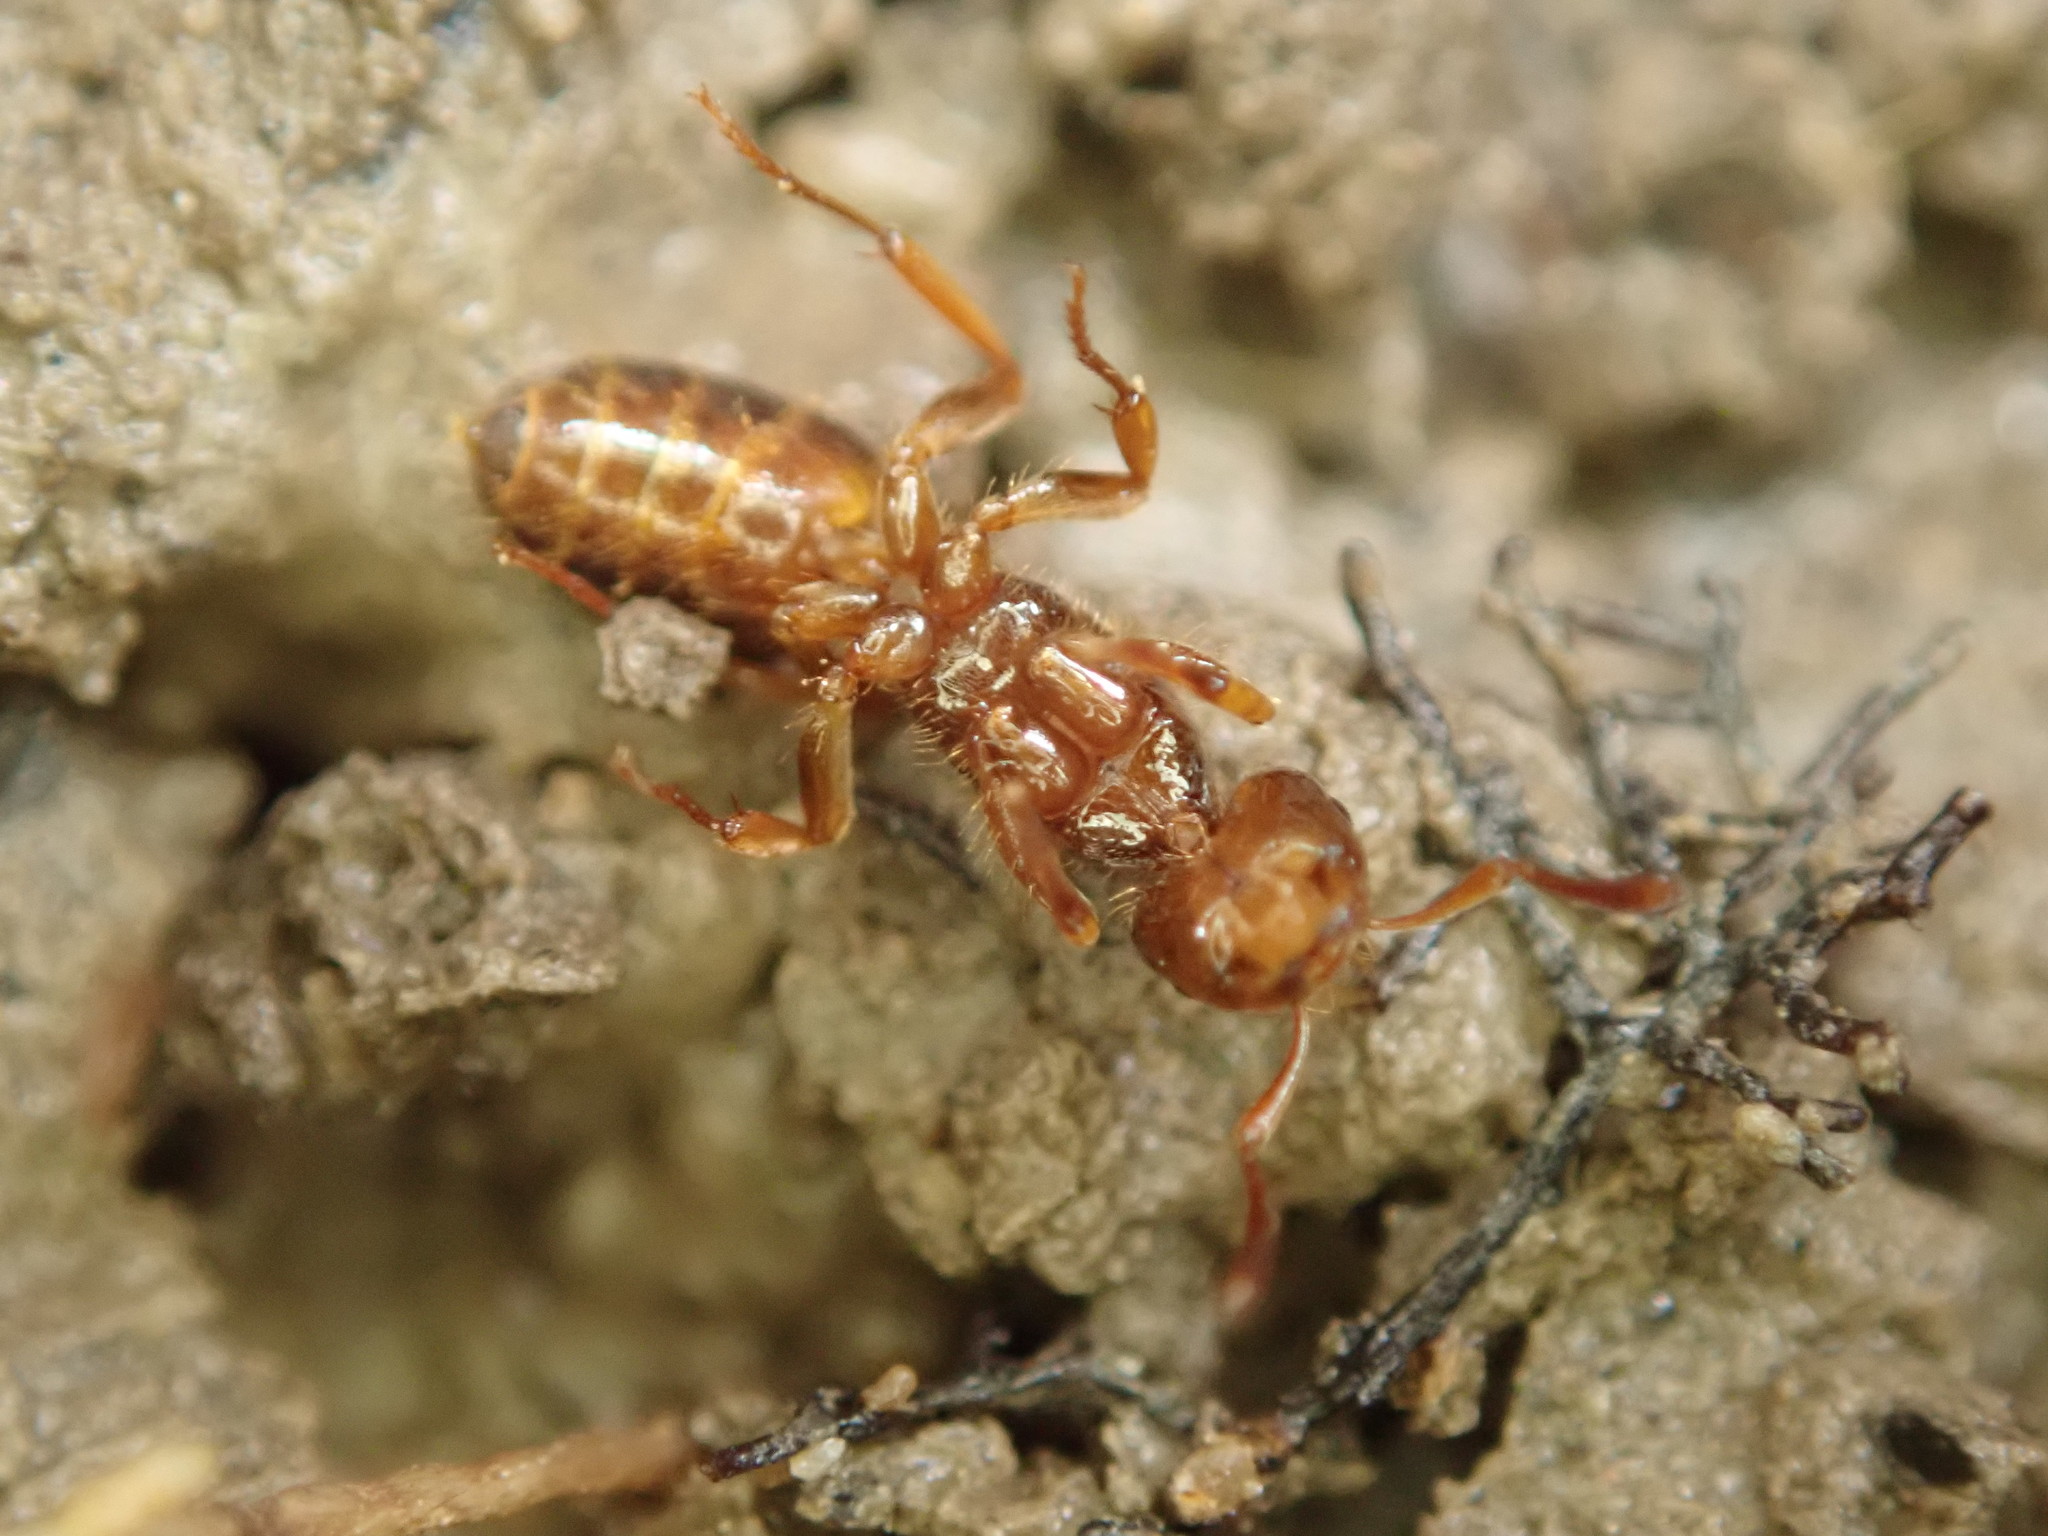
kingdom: Animalia
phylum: Arthropoda
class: Insecta
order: Hymenoptera
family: Formicidae
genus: Lasius
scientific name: Lasius claviger
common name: Common citronella ant
